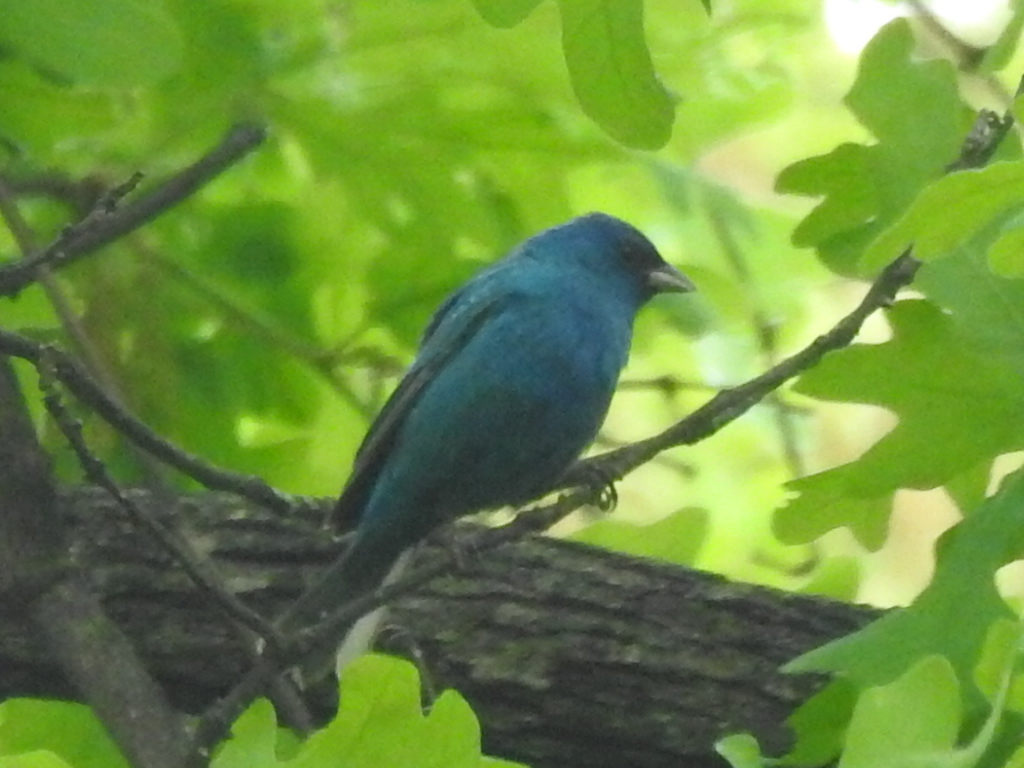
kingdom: Animalia
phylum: Chordata
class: Aves
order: Passeriformes
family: Cardinalidae
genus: Passerina
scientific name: Passerina cyanea
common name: Indigo bunting
